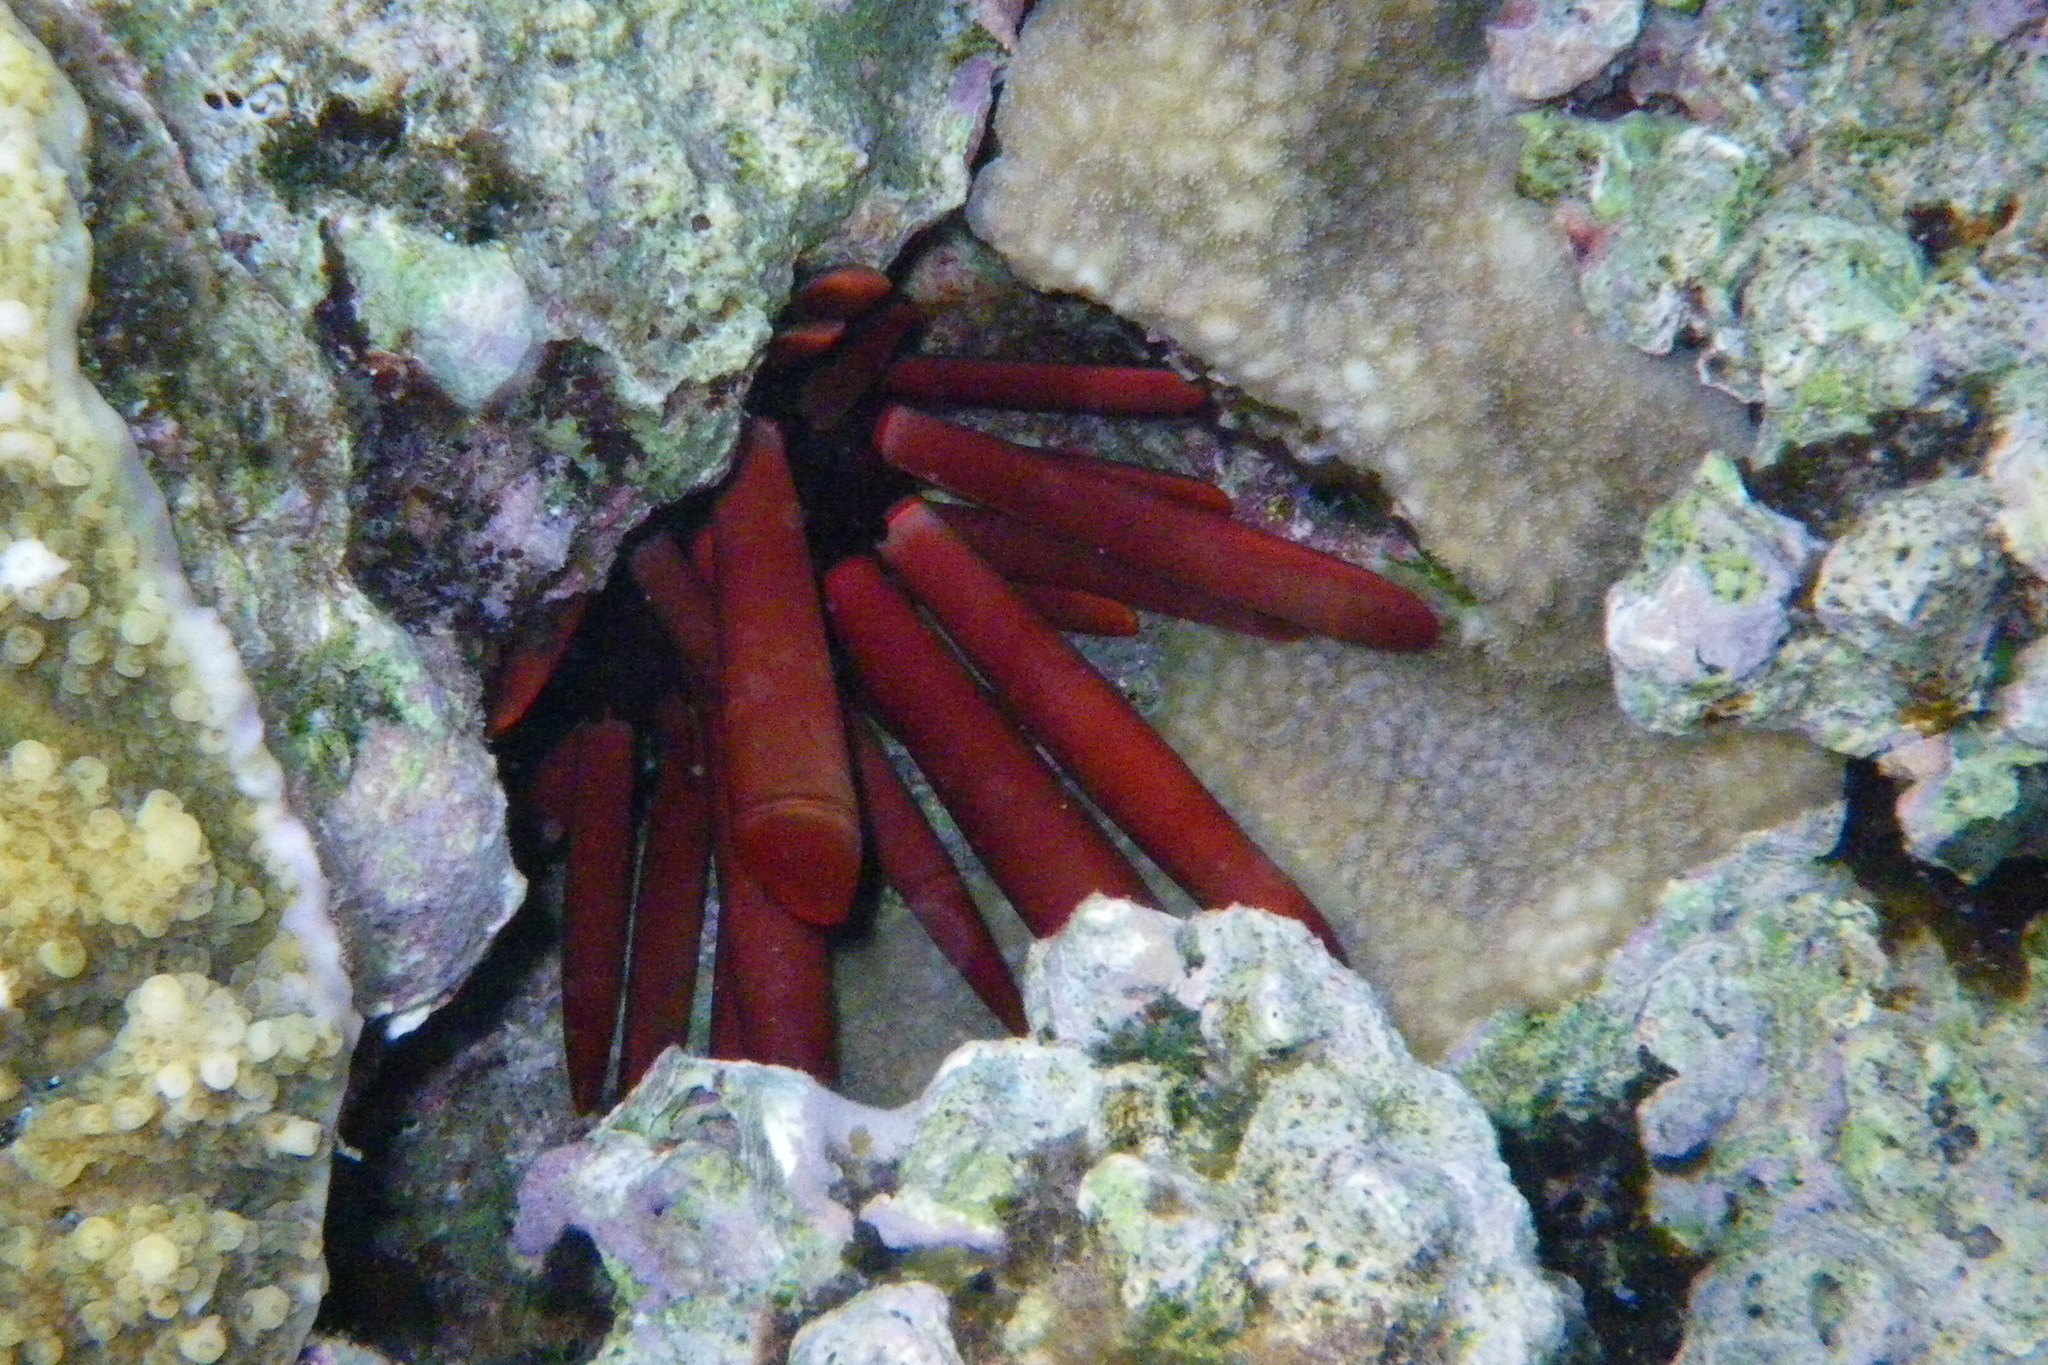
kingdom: Animalia
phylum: Echinodermata
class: Echinoidea
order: Camarodonta
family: Echinometridae
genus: Heterocentrotus
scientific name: Heterocentrotus mamillatus
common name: Slate pencil urchin
